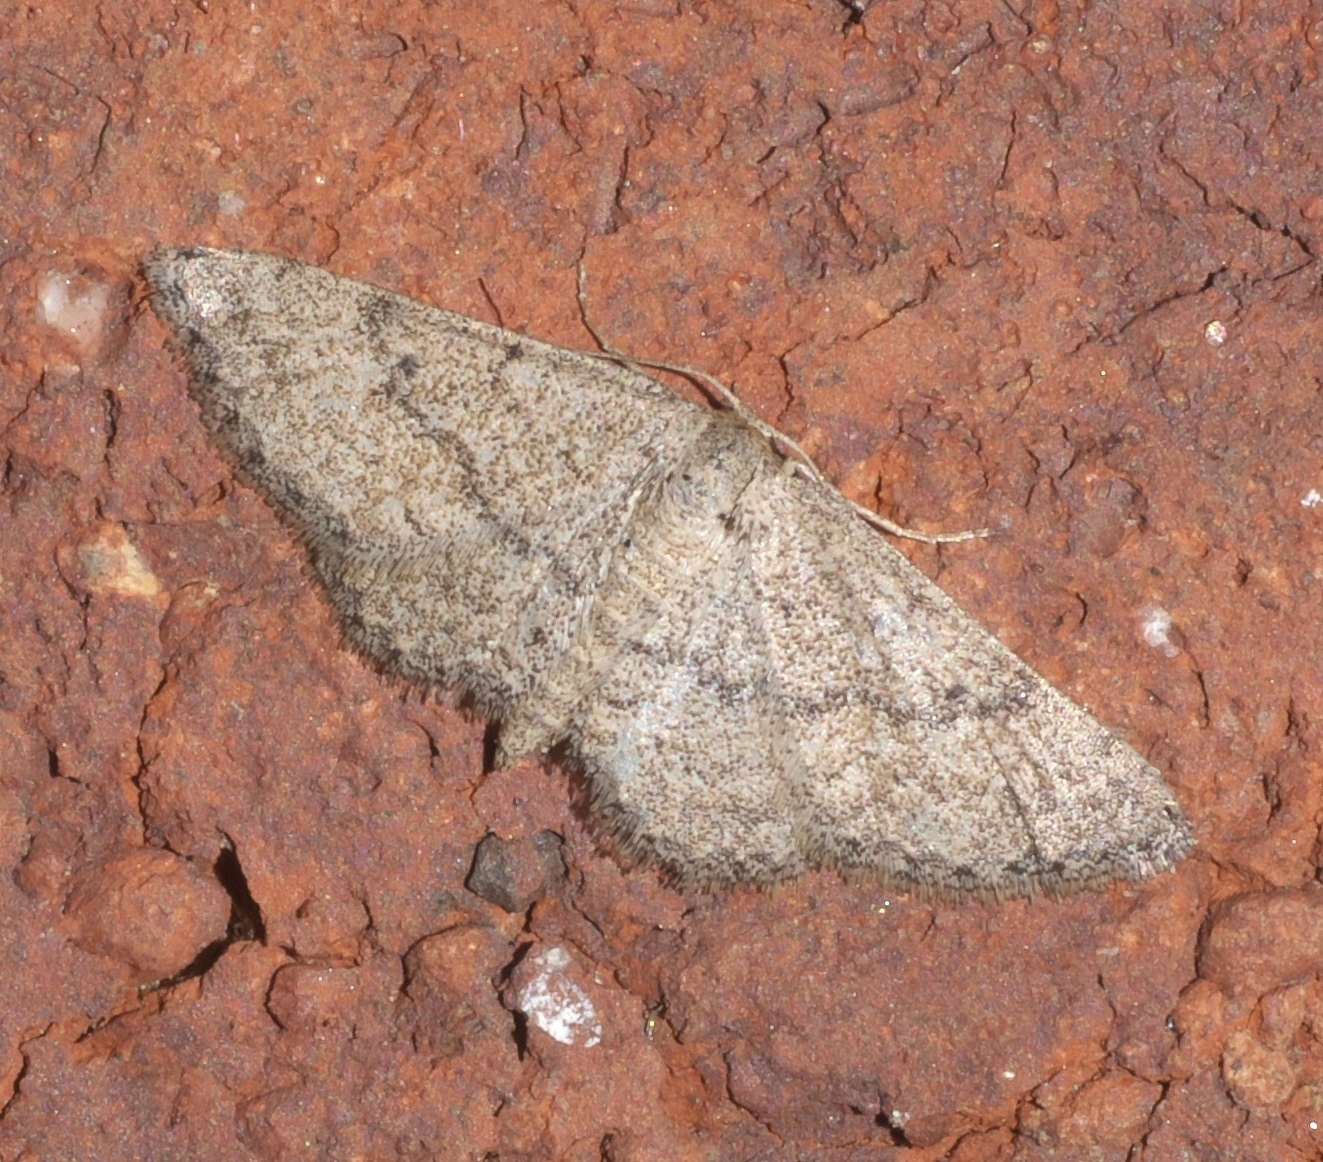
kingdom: Animalia
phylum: Arthropoda
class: Insecta
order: Lepidoptera
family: Geometridae
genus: Lobocleta
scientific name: Lobocleta ossularia
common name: Drab brown wave
